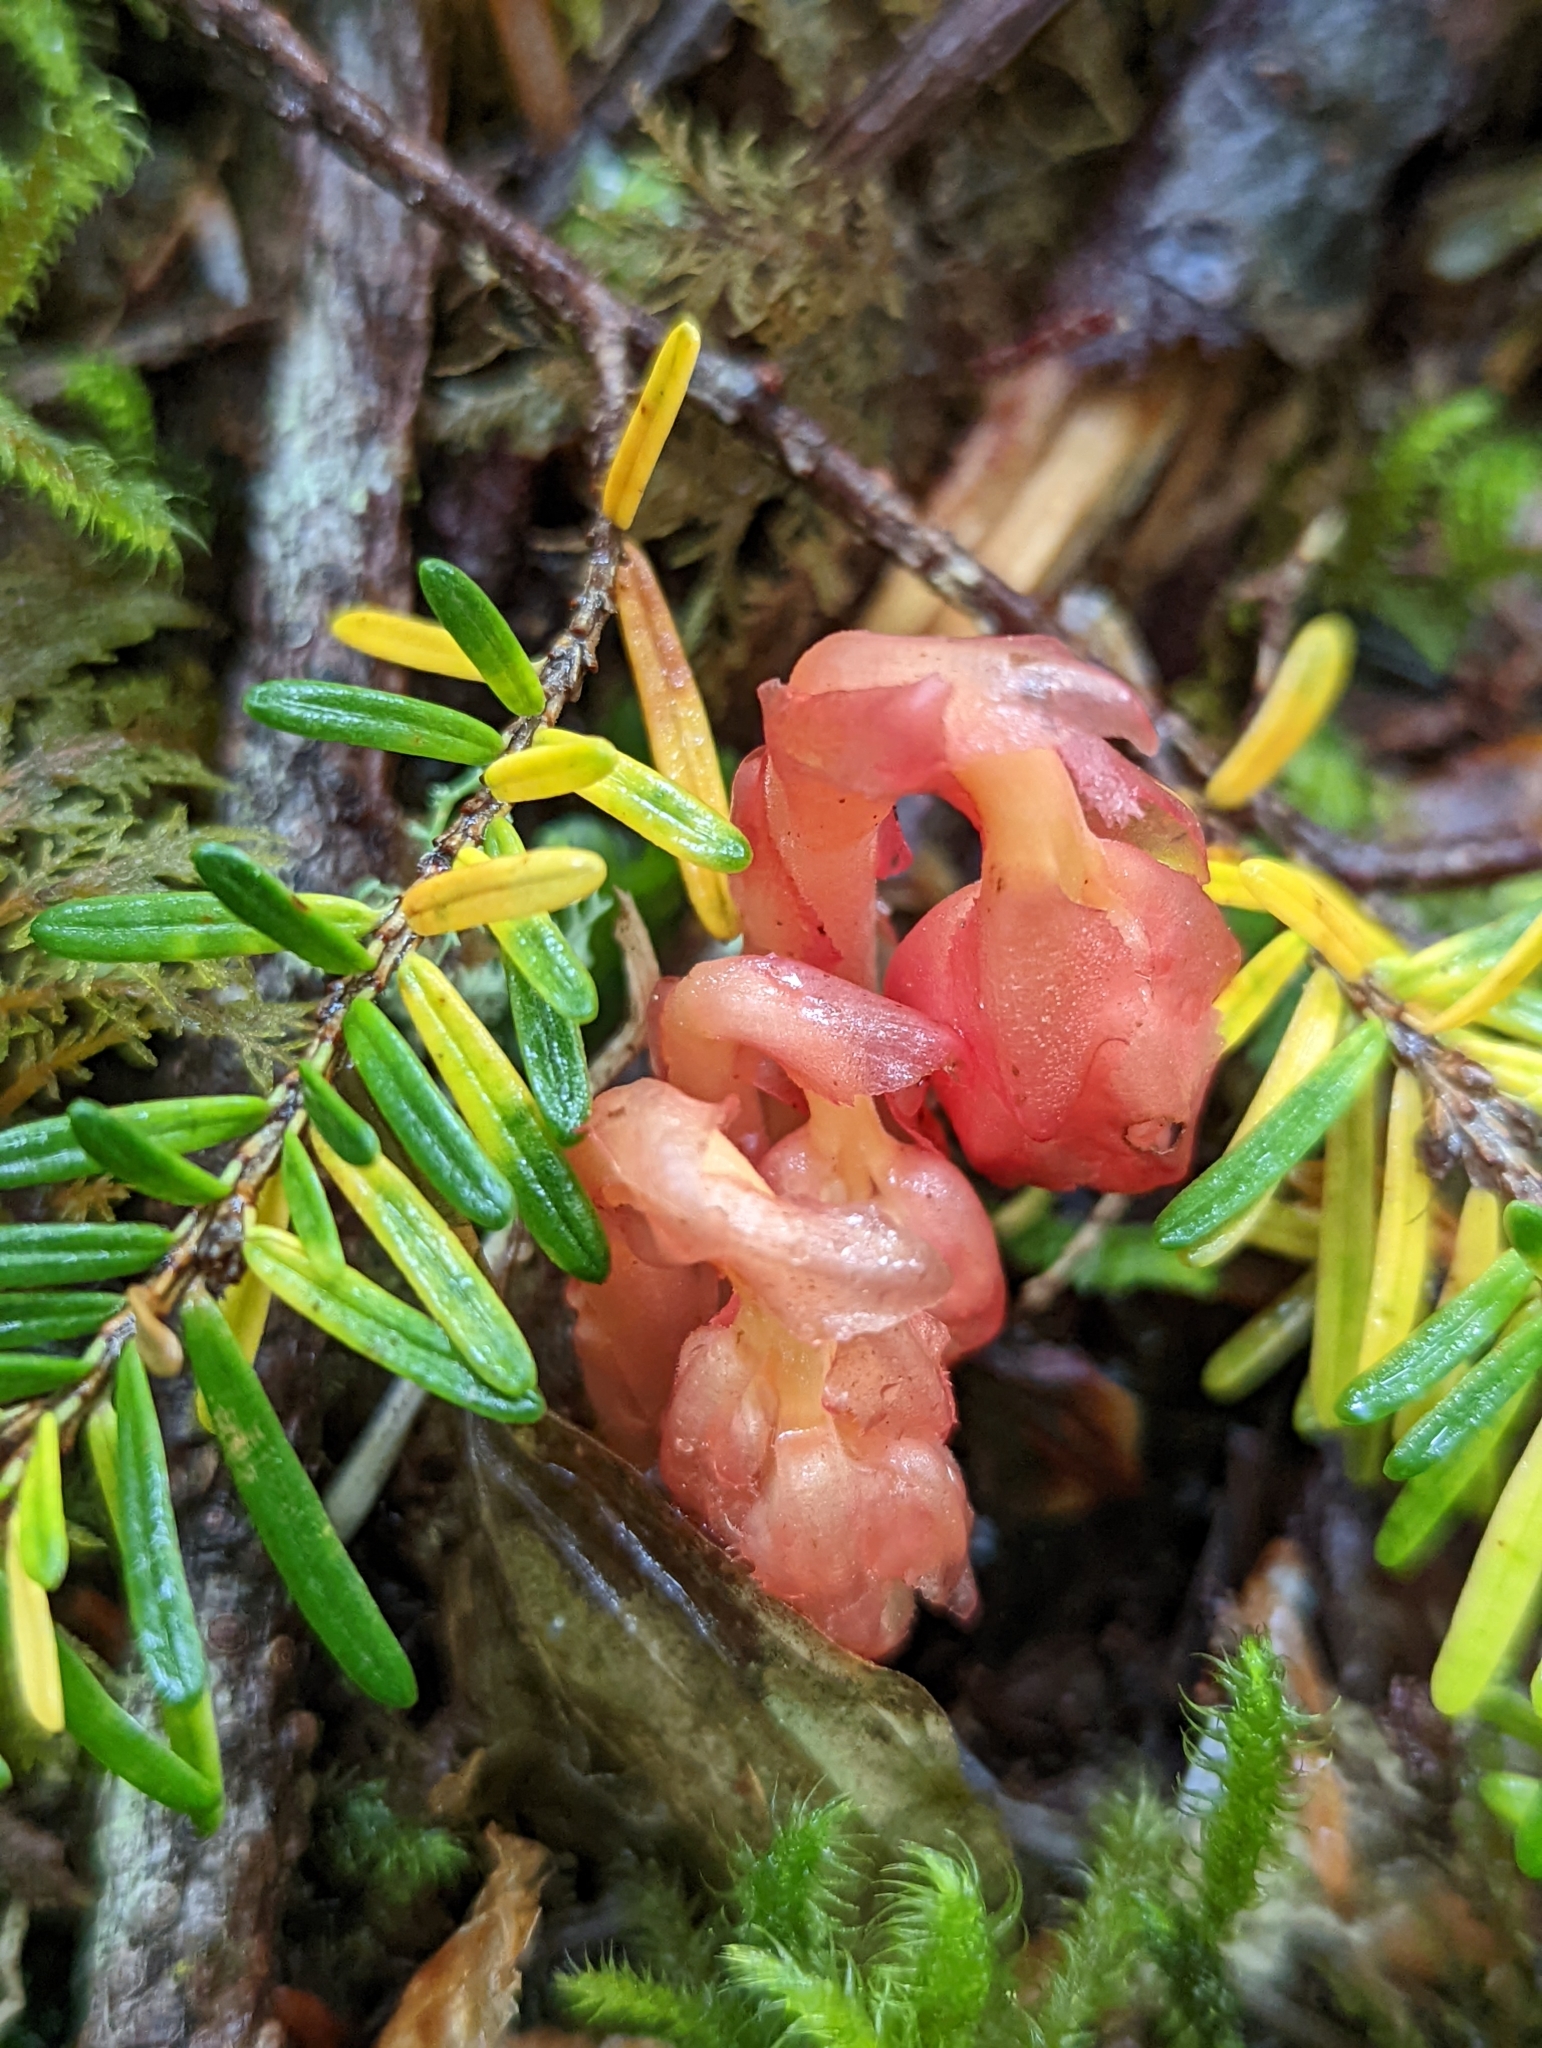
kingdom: Plantae
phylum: Tracheophyta
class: Magnoliopsida
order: Ericales
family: Ericaceae
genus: Hypopitys
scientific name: Hypopitys monotropa
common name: Yellow bird's-nest
